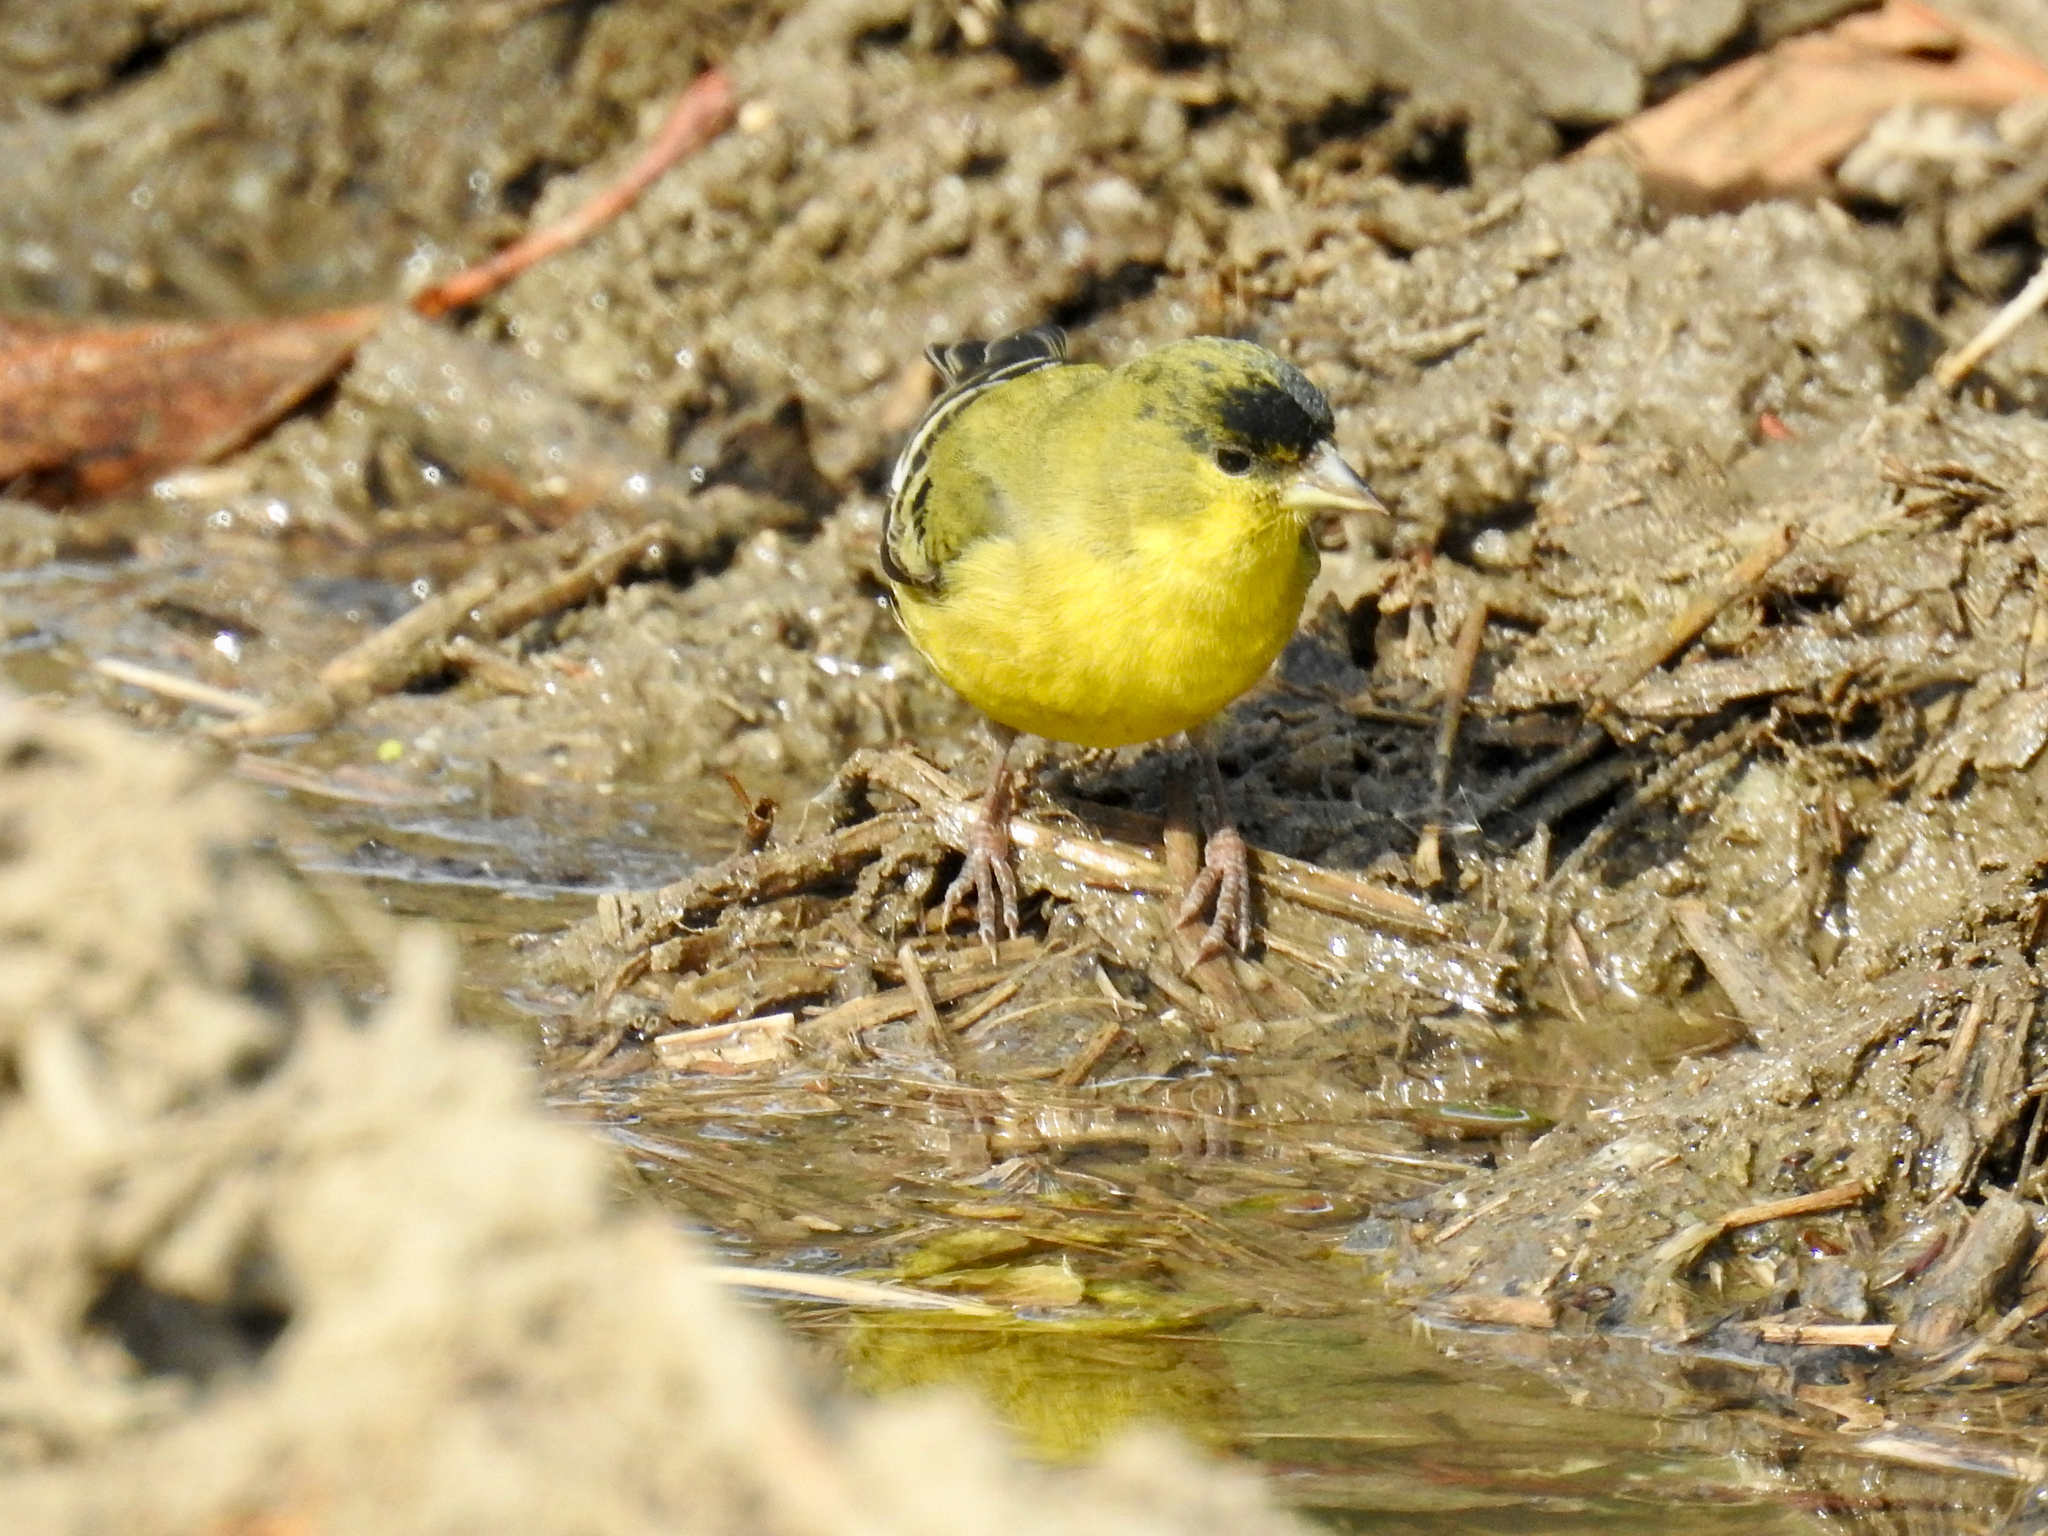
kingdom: Animalia
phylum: Chordata
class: Aves
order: Passeriformes
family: Fringillidae
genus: Spinus
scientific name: Spinus psaltria
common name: Lesser goldfinch
